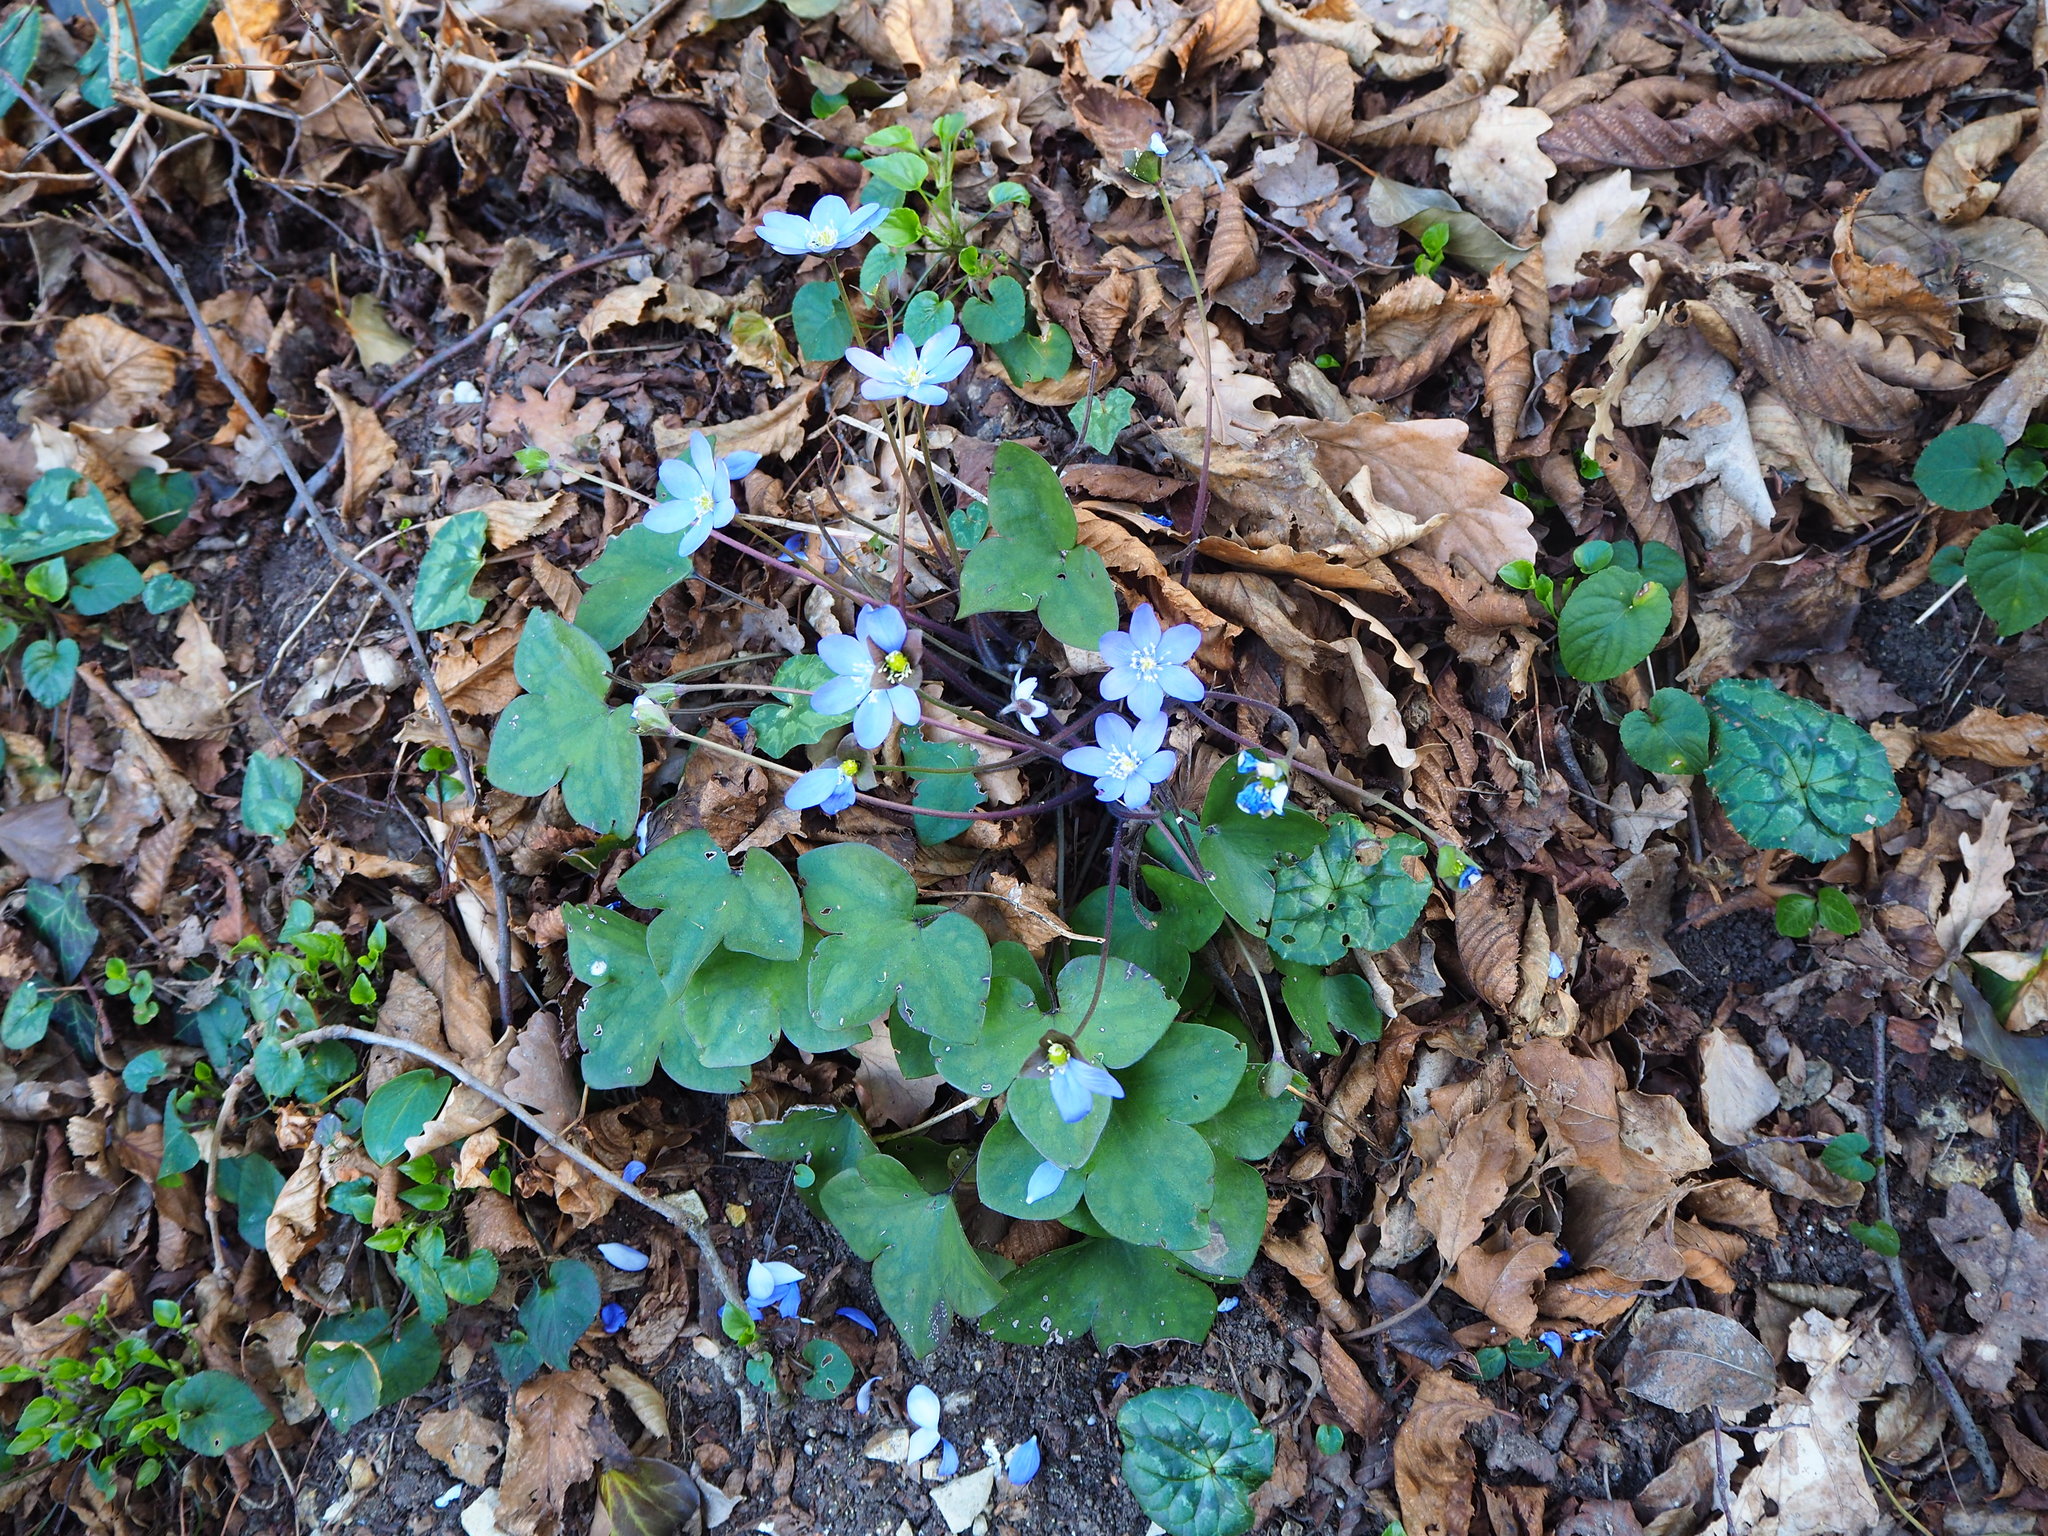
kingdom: Plantae
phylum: Tracheophyta
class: Magnoliopsida
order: Ranunculales
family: Ranunculaceae
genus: Hepatica
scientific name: Hepatica nobilis
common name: Liverleaf
